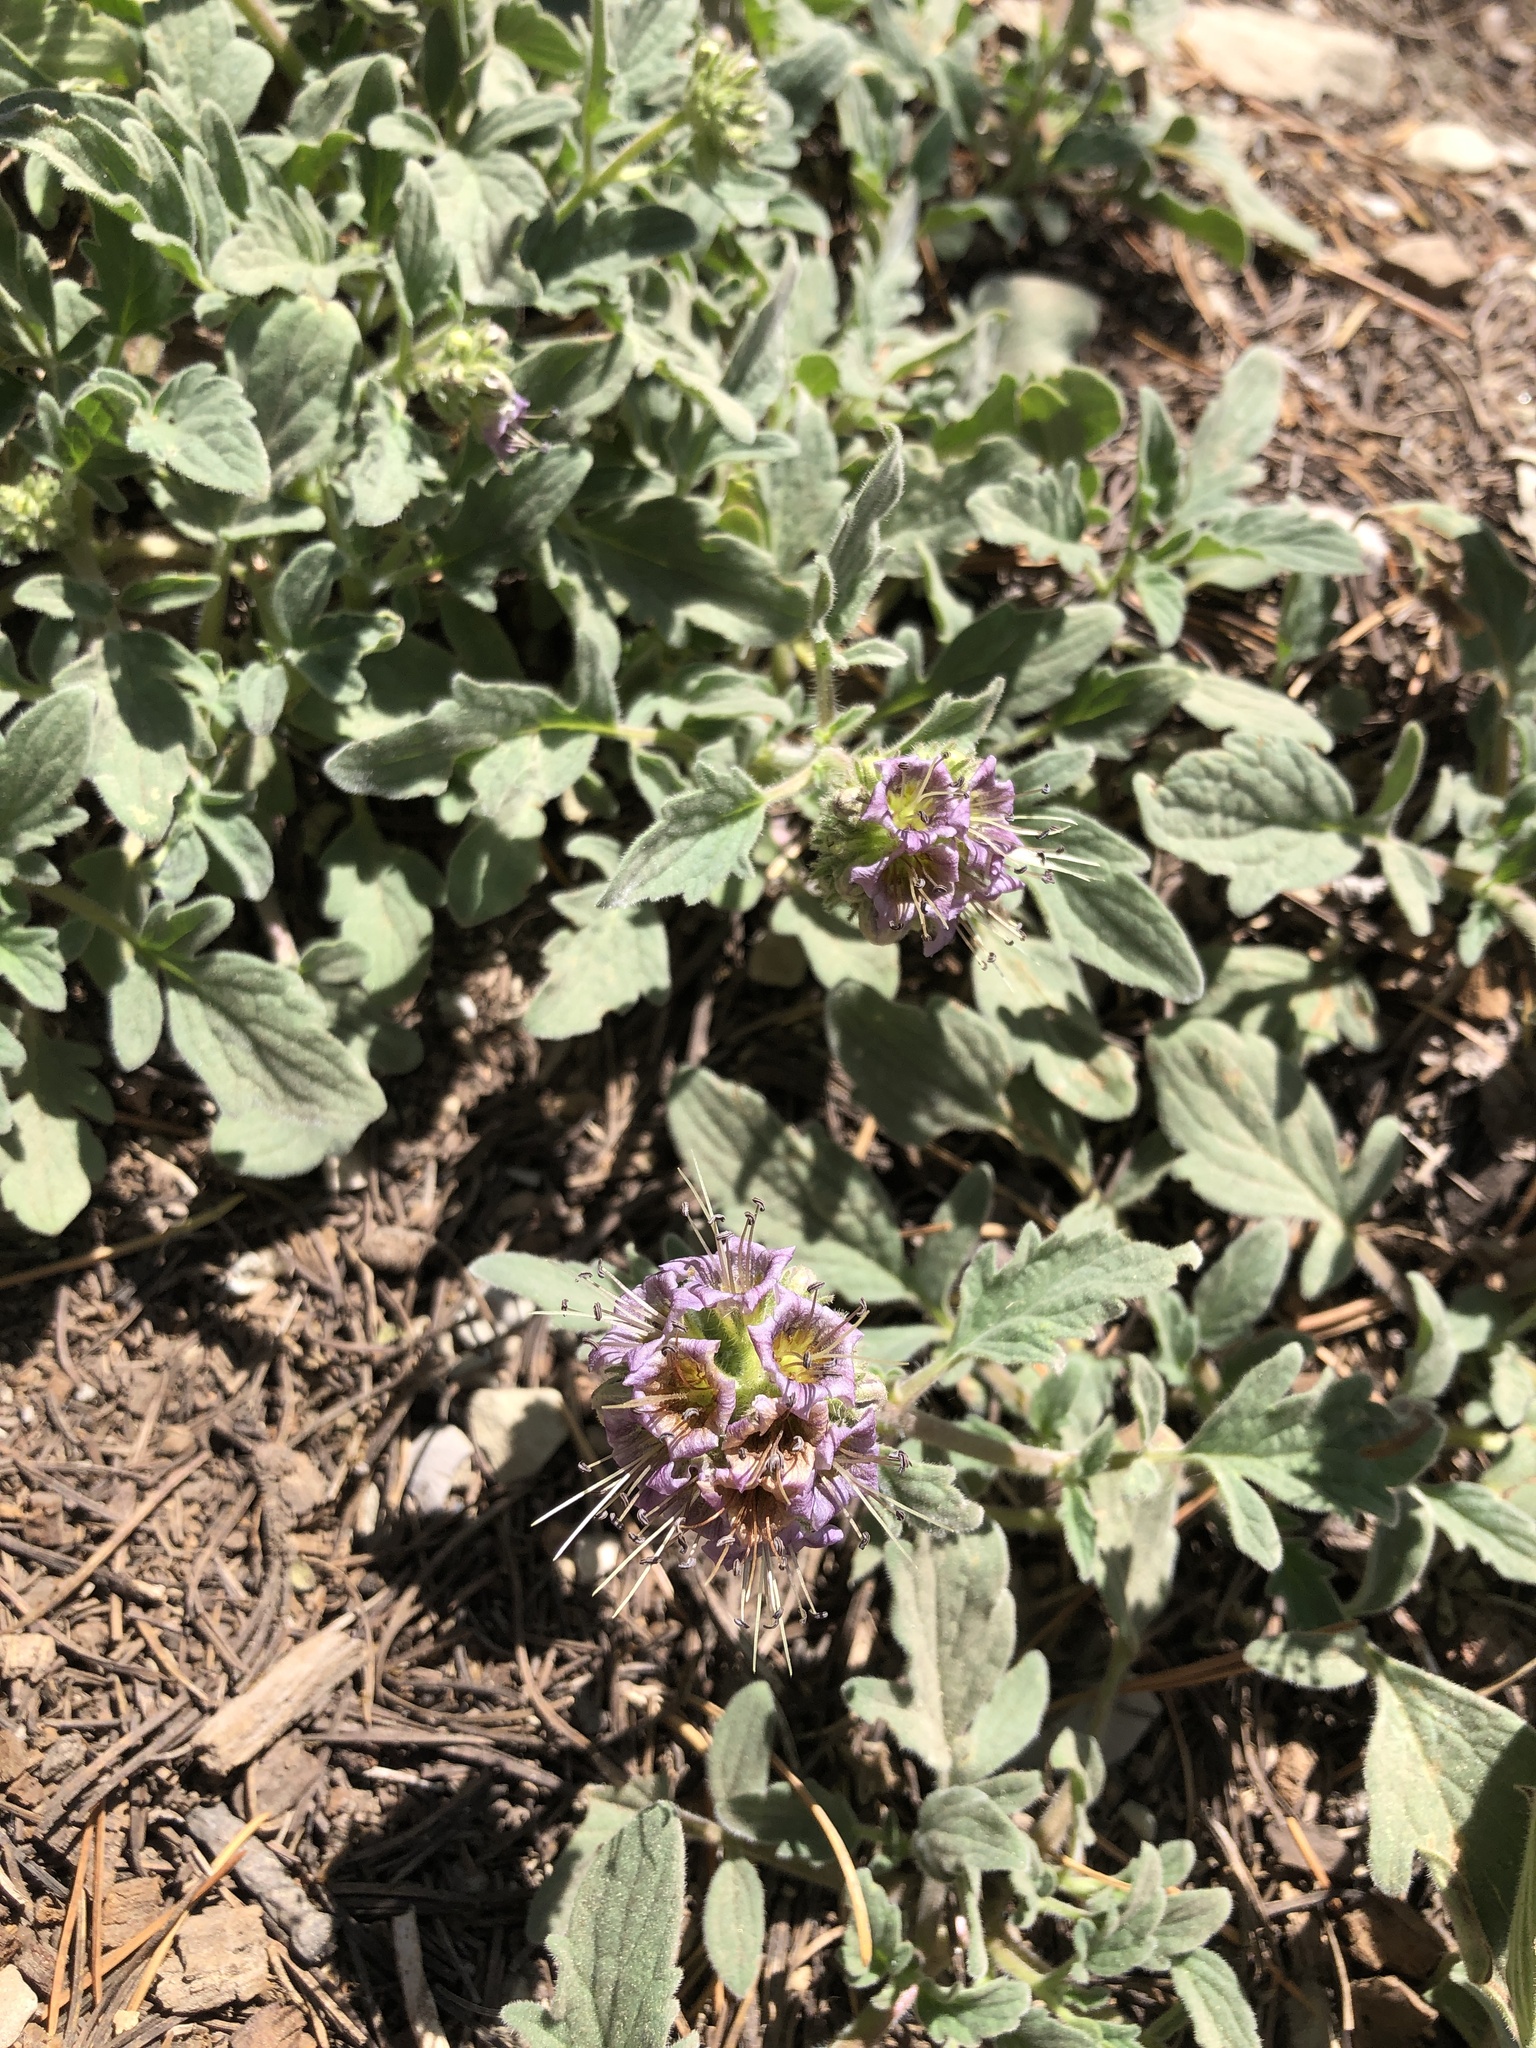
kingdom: Plantae
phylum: Tracheophyta
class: Magnoliopsida
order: Boraginales
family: Hydrophyllaceae
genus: Hydrophyllum
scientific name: Hydrophyllum occidentale
